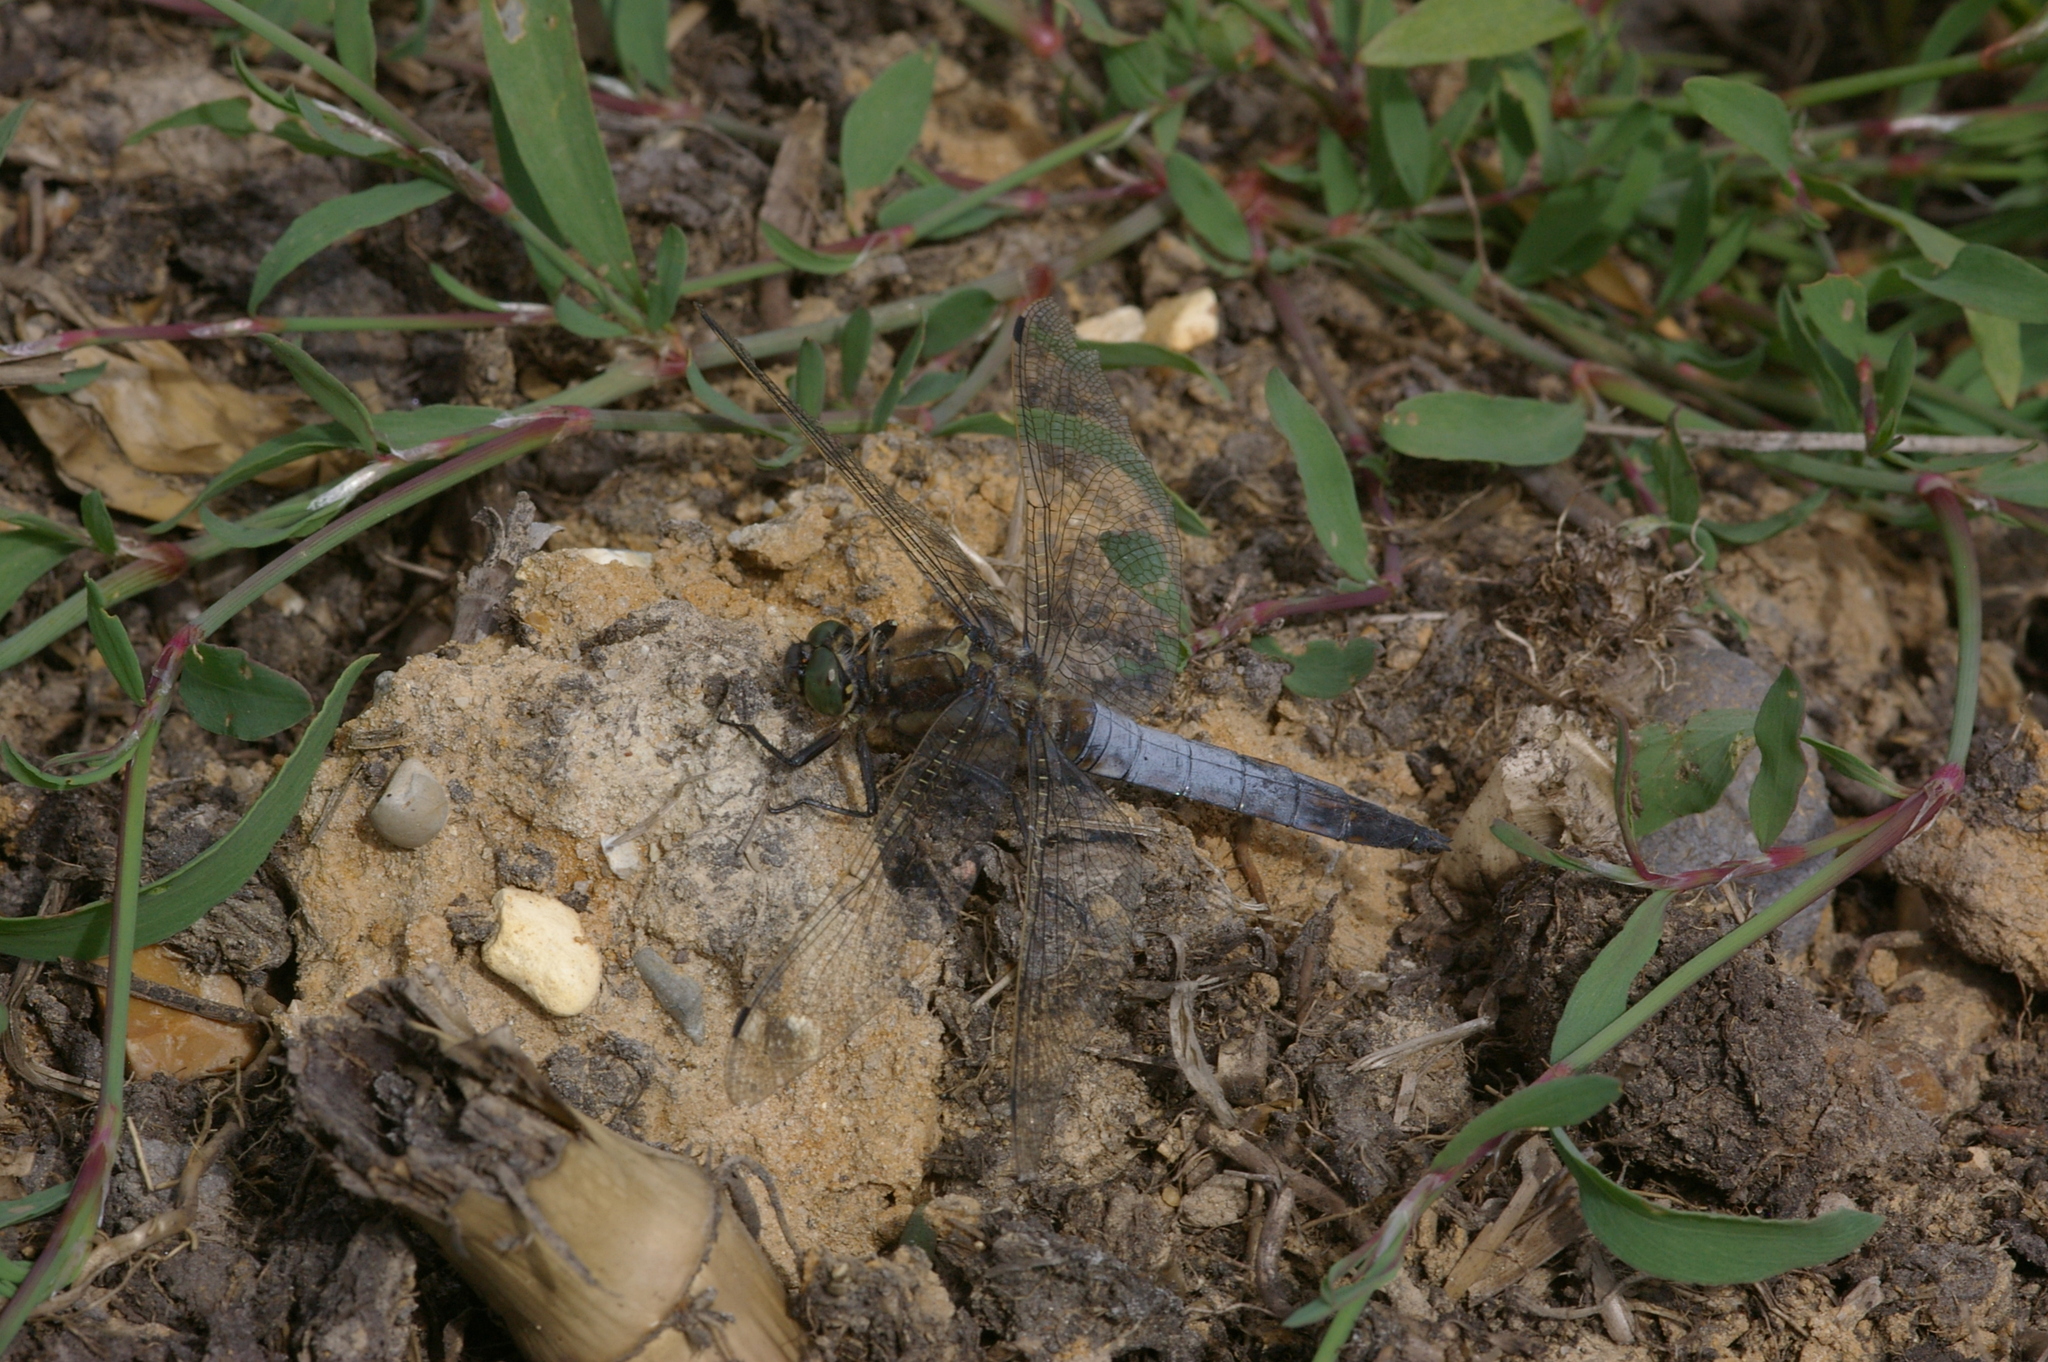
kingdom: Animalia
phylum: Arthropoda
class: Insecta
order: Odonata
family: Libellulidae
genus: Orthetrum
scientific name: Orthetrum cancellatum
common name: Black-tailed skimmer
